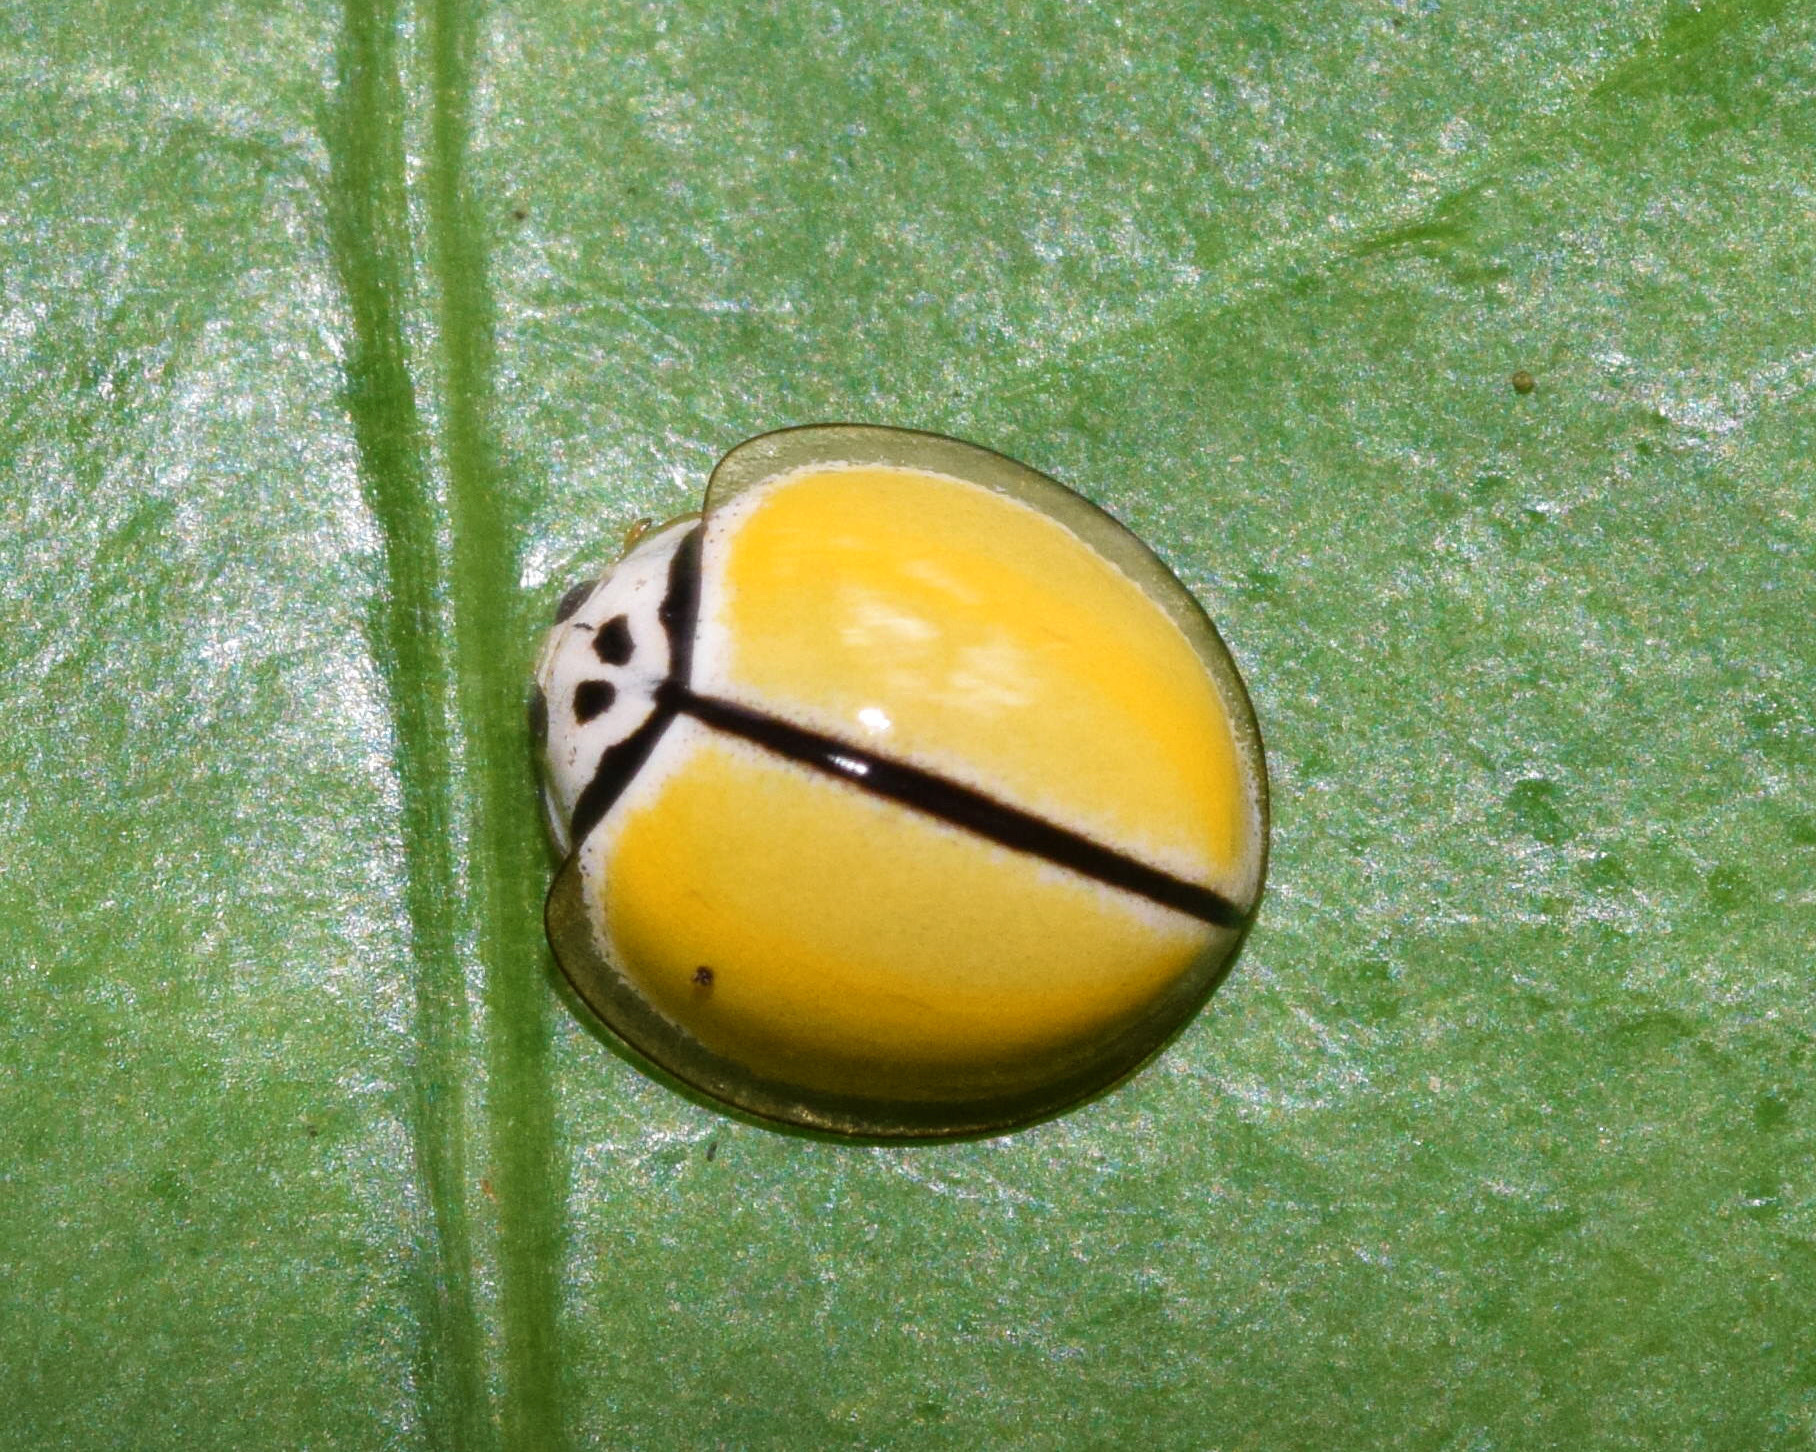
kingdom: Animalia
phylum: Arthropoda
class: Insecta
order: Coleoptera
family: Coccinellidae
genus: Oenopia
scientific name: Oenopia
